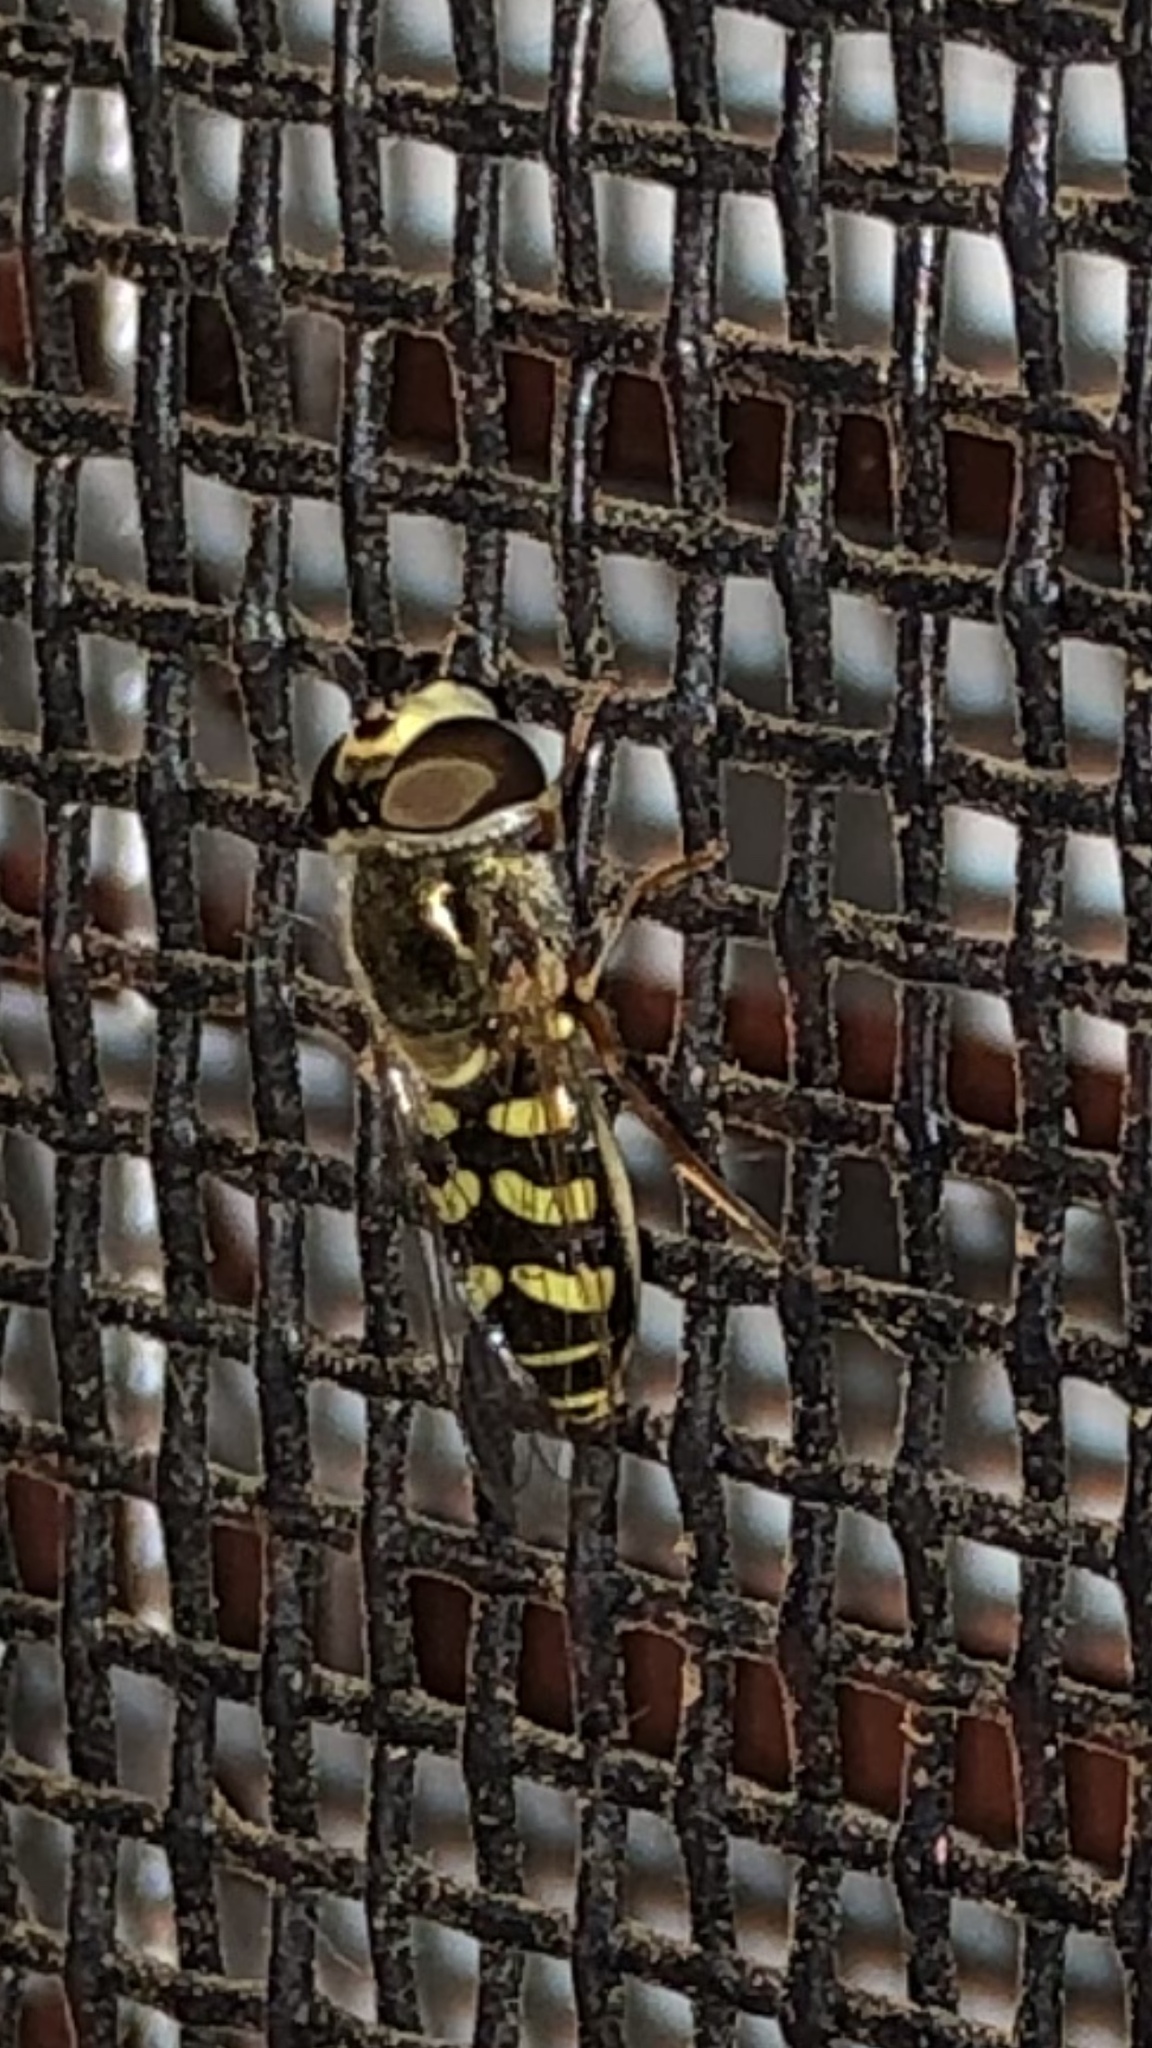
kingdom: Animalia
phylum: Arthropoda
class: Insecta
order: Diptera
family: Syrphidae
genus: Eupeodes
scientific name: Eupeodes volucris
